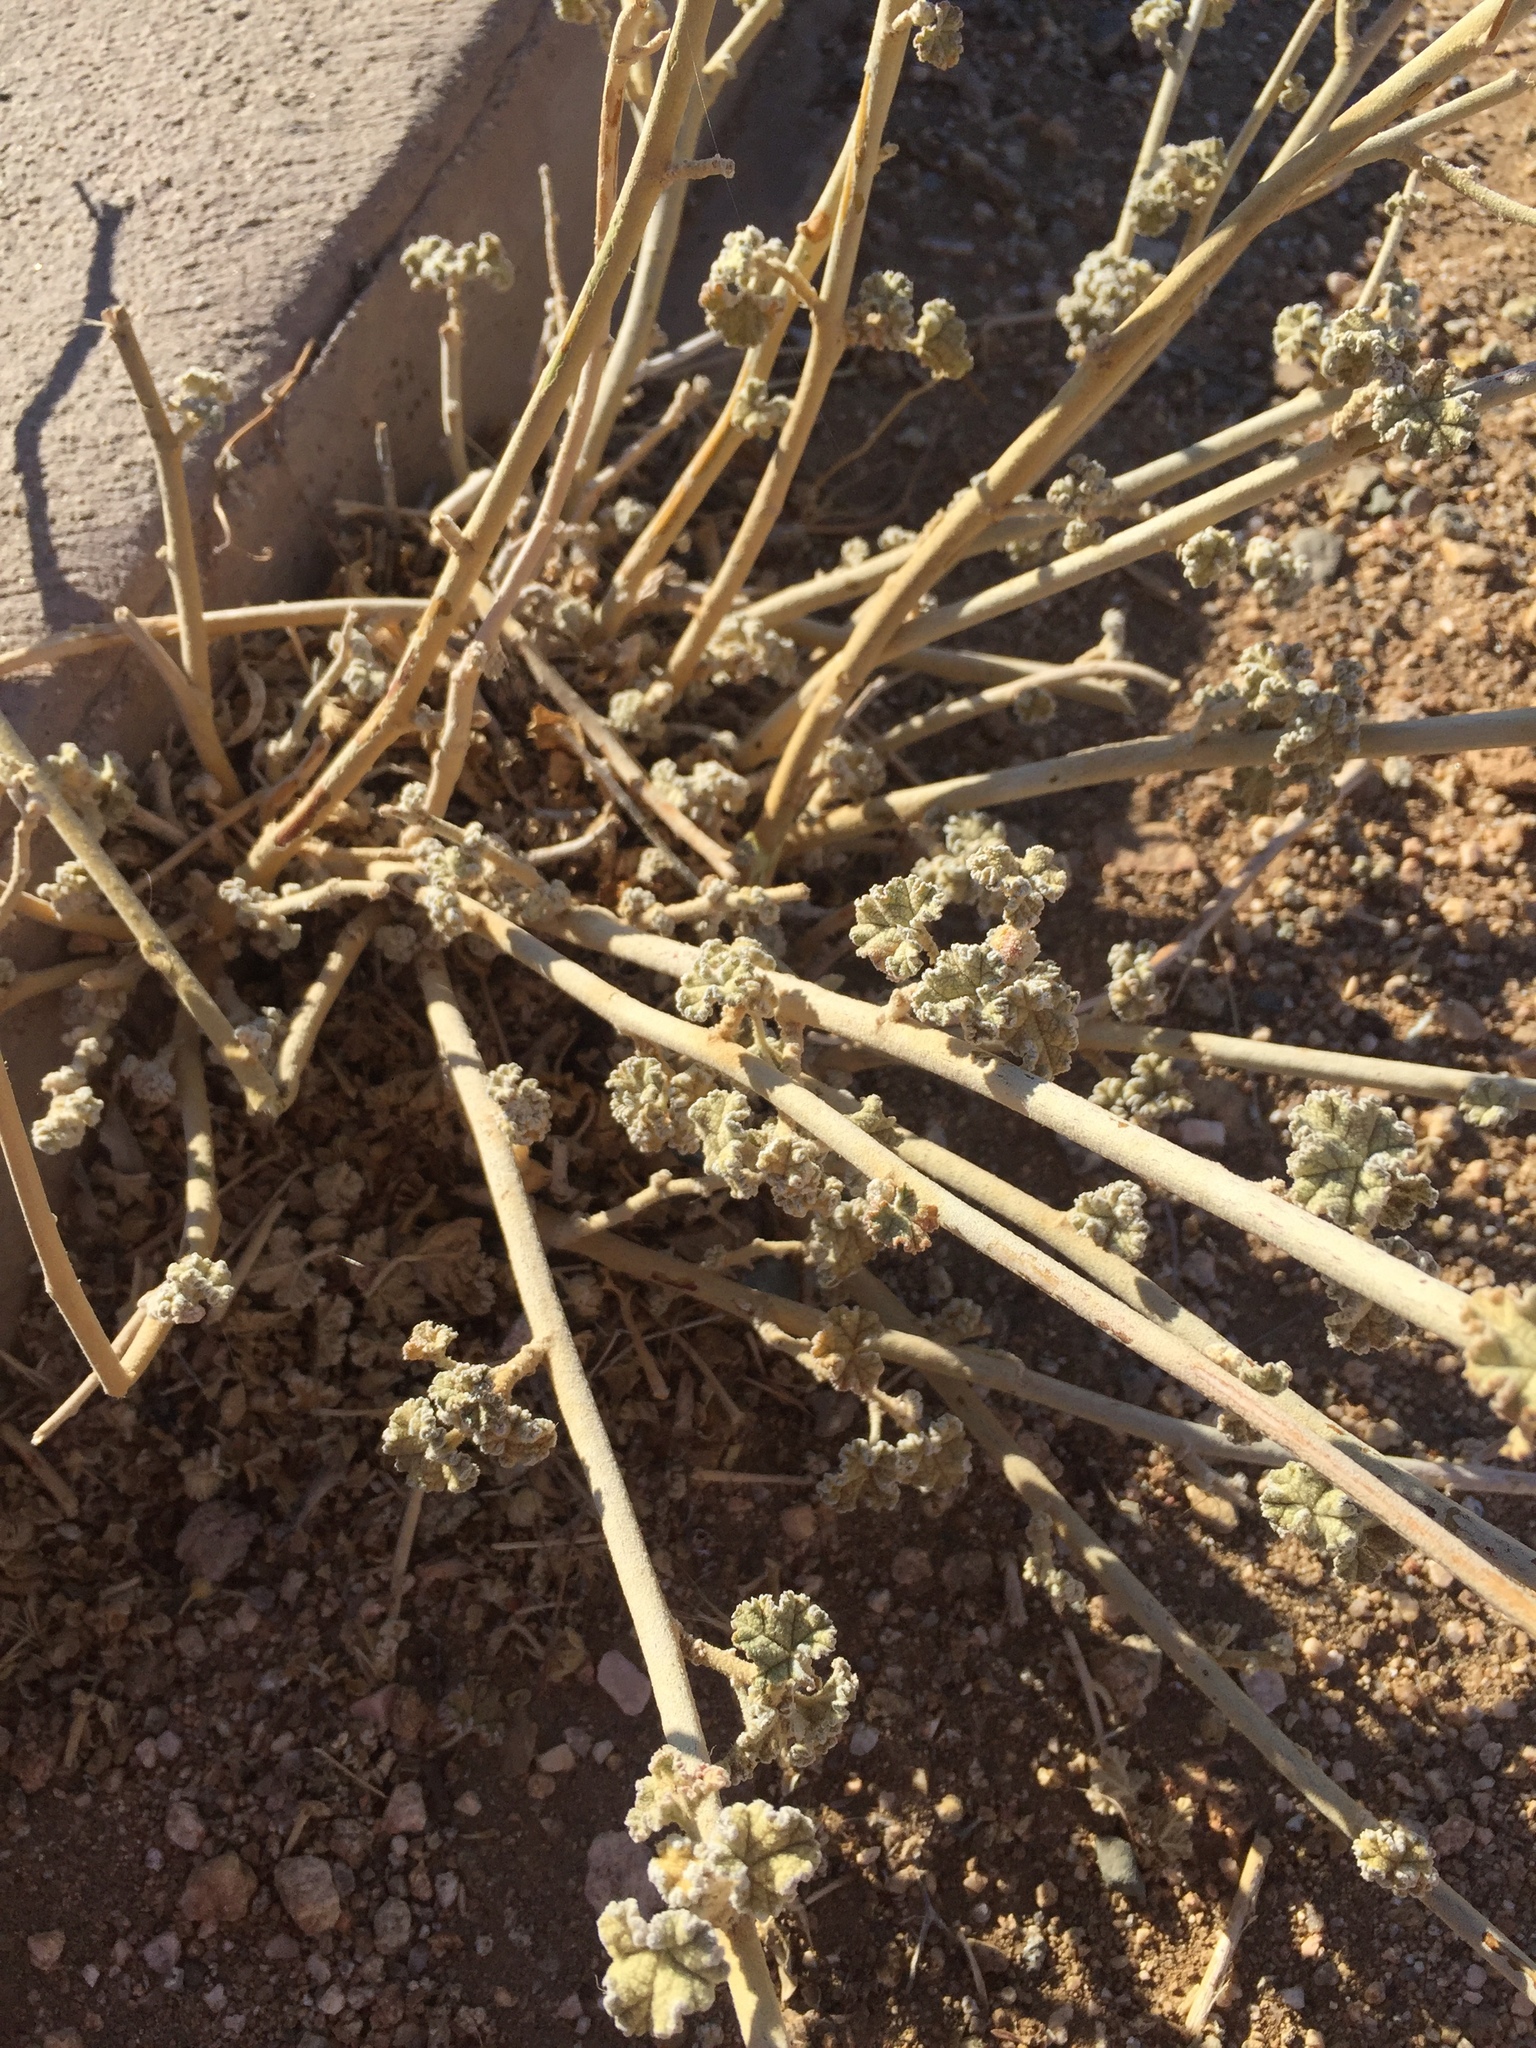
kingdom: Plantae
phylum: Tracheophyta
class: Magnoliopsida
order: Malvales
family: Malvaceae
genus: Sphaeralcea
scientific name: Sphaeralcea ambigua
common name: Apricot globe-mallow
